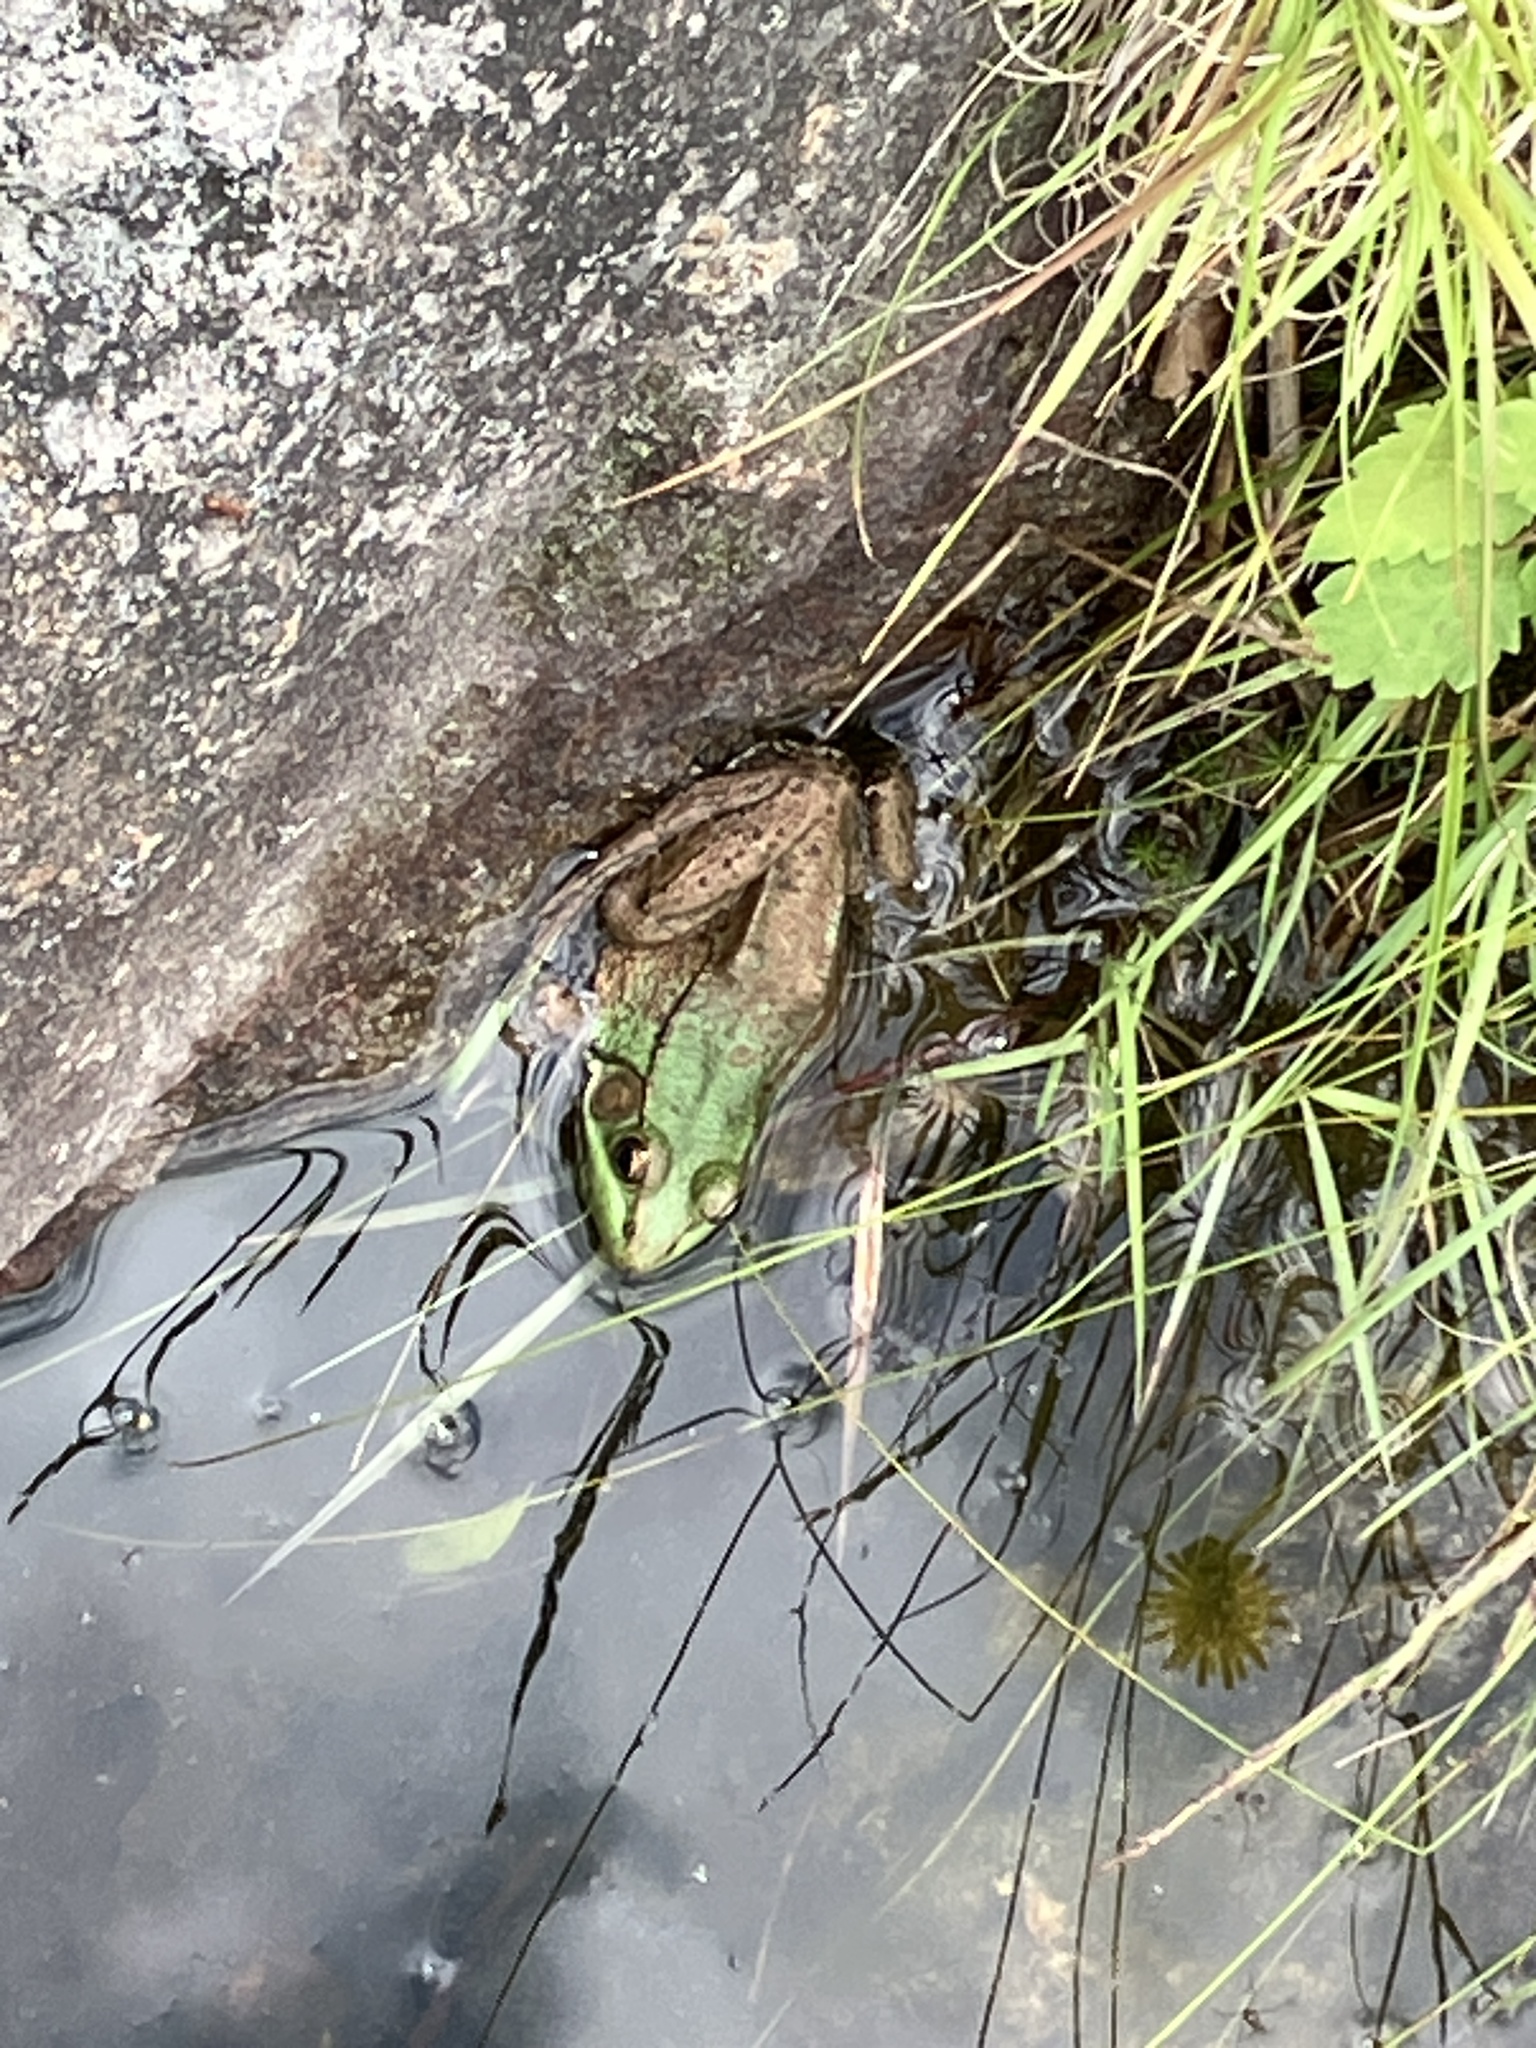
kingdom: Animalia
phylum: Chordata
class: Amphibia
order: Anura
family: Ranidae
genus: Lithobates
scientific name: Lithobates clamitans
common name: Green frog
